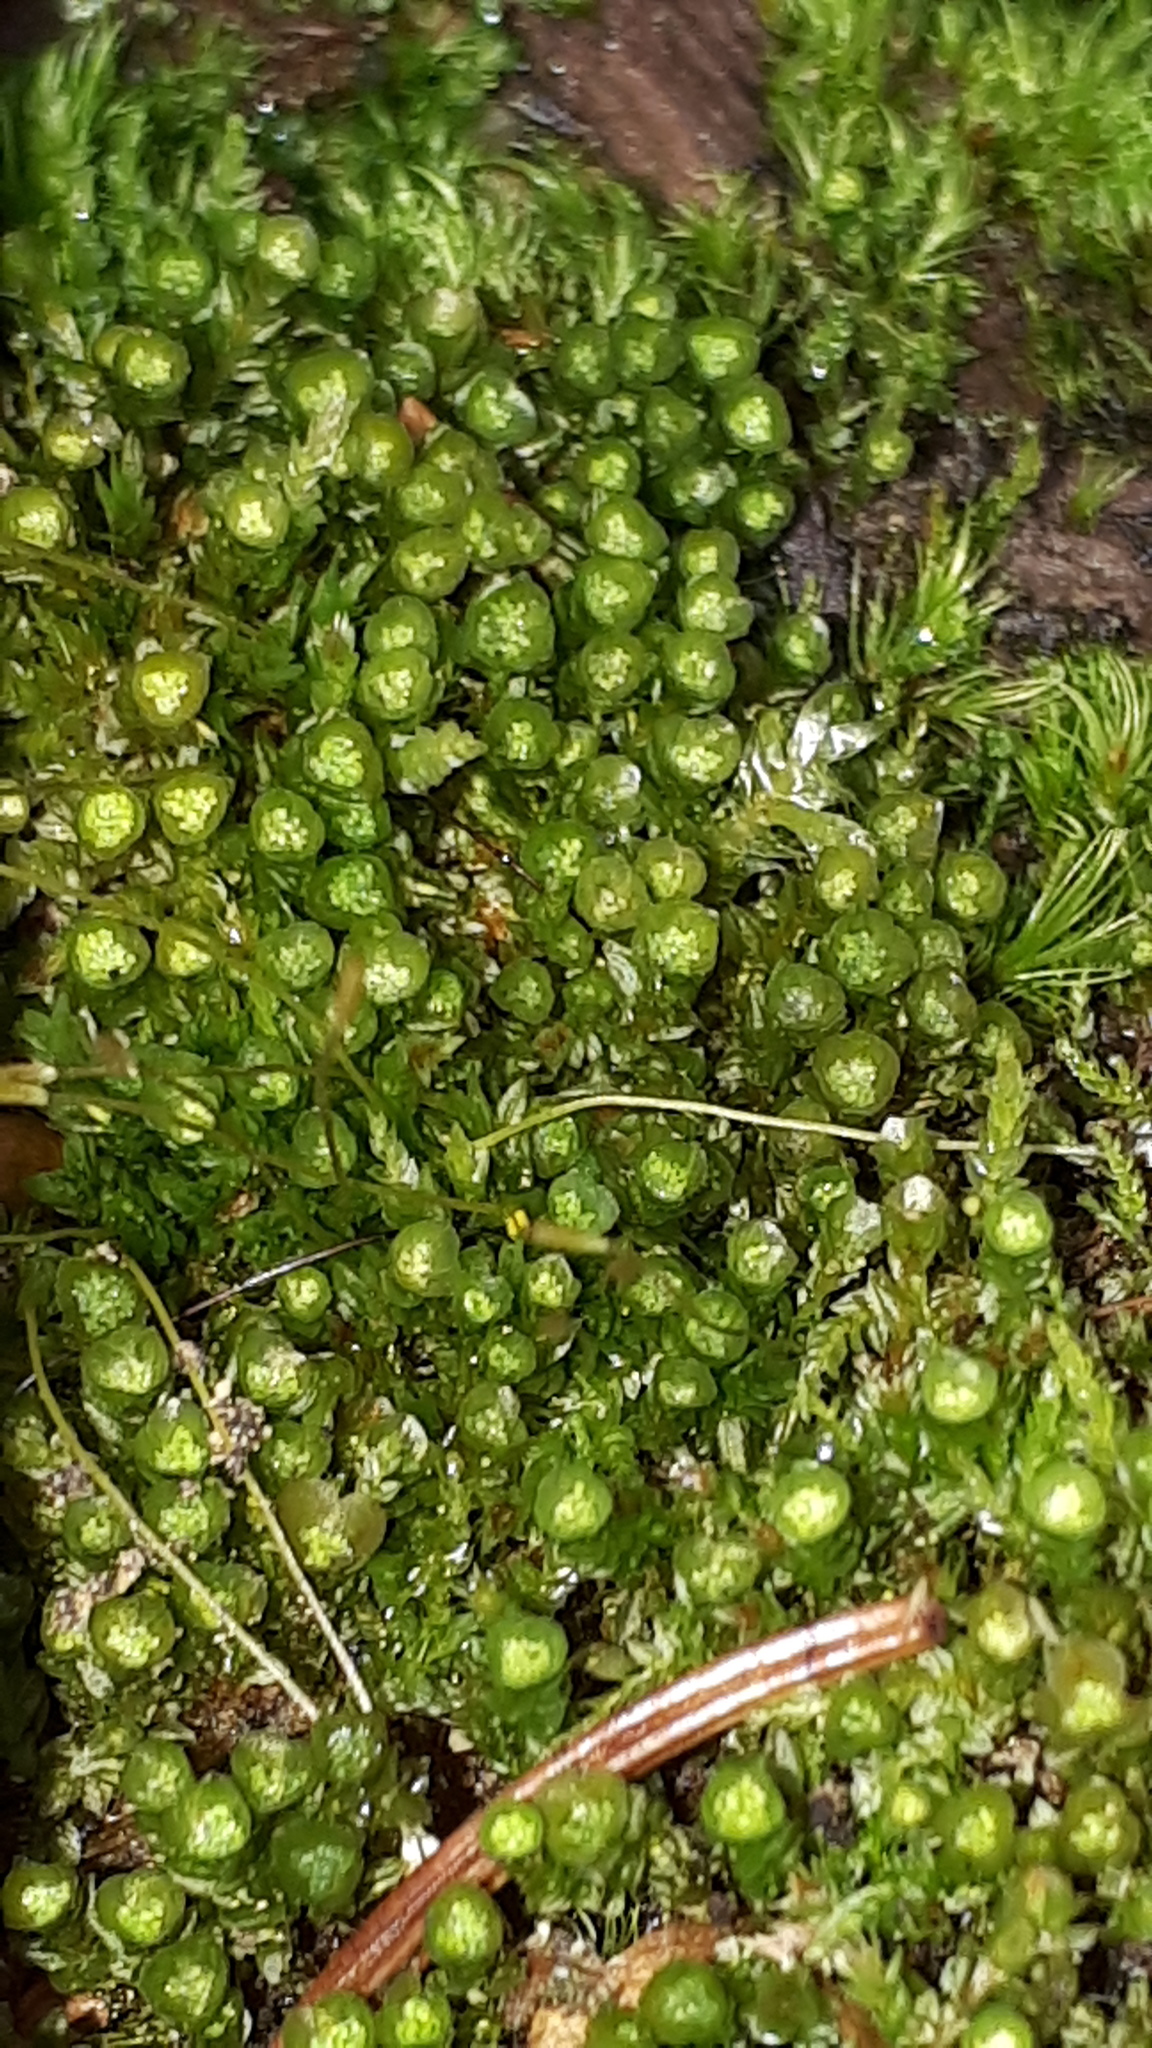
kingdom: Plantae
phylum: Bryophyta
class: Polytrichopsida
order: Tetraphidales
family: Tetraphidaceae
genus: Tetraphis
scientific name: Tetraphis pellucida
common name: Common four-toothed moss
